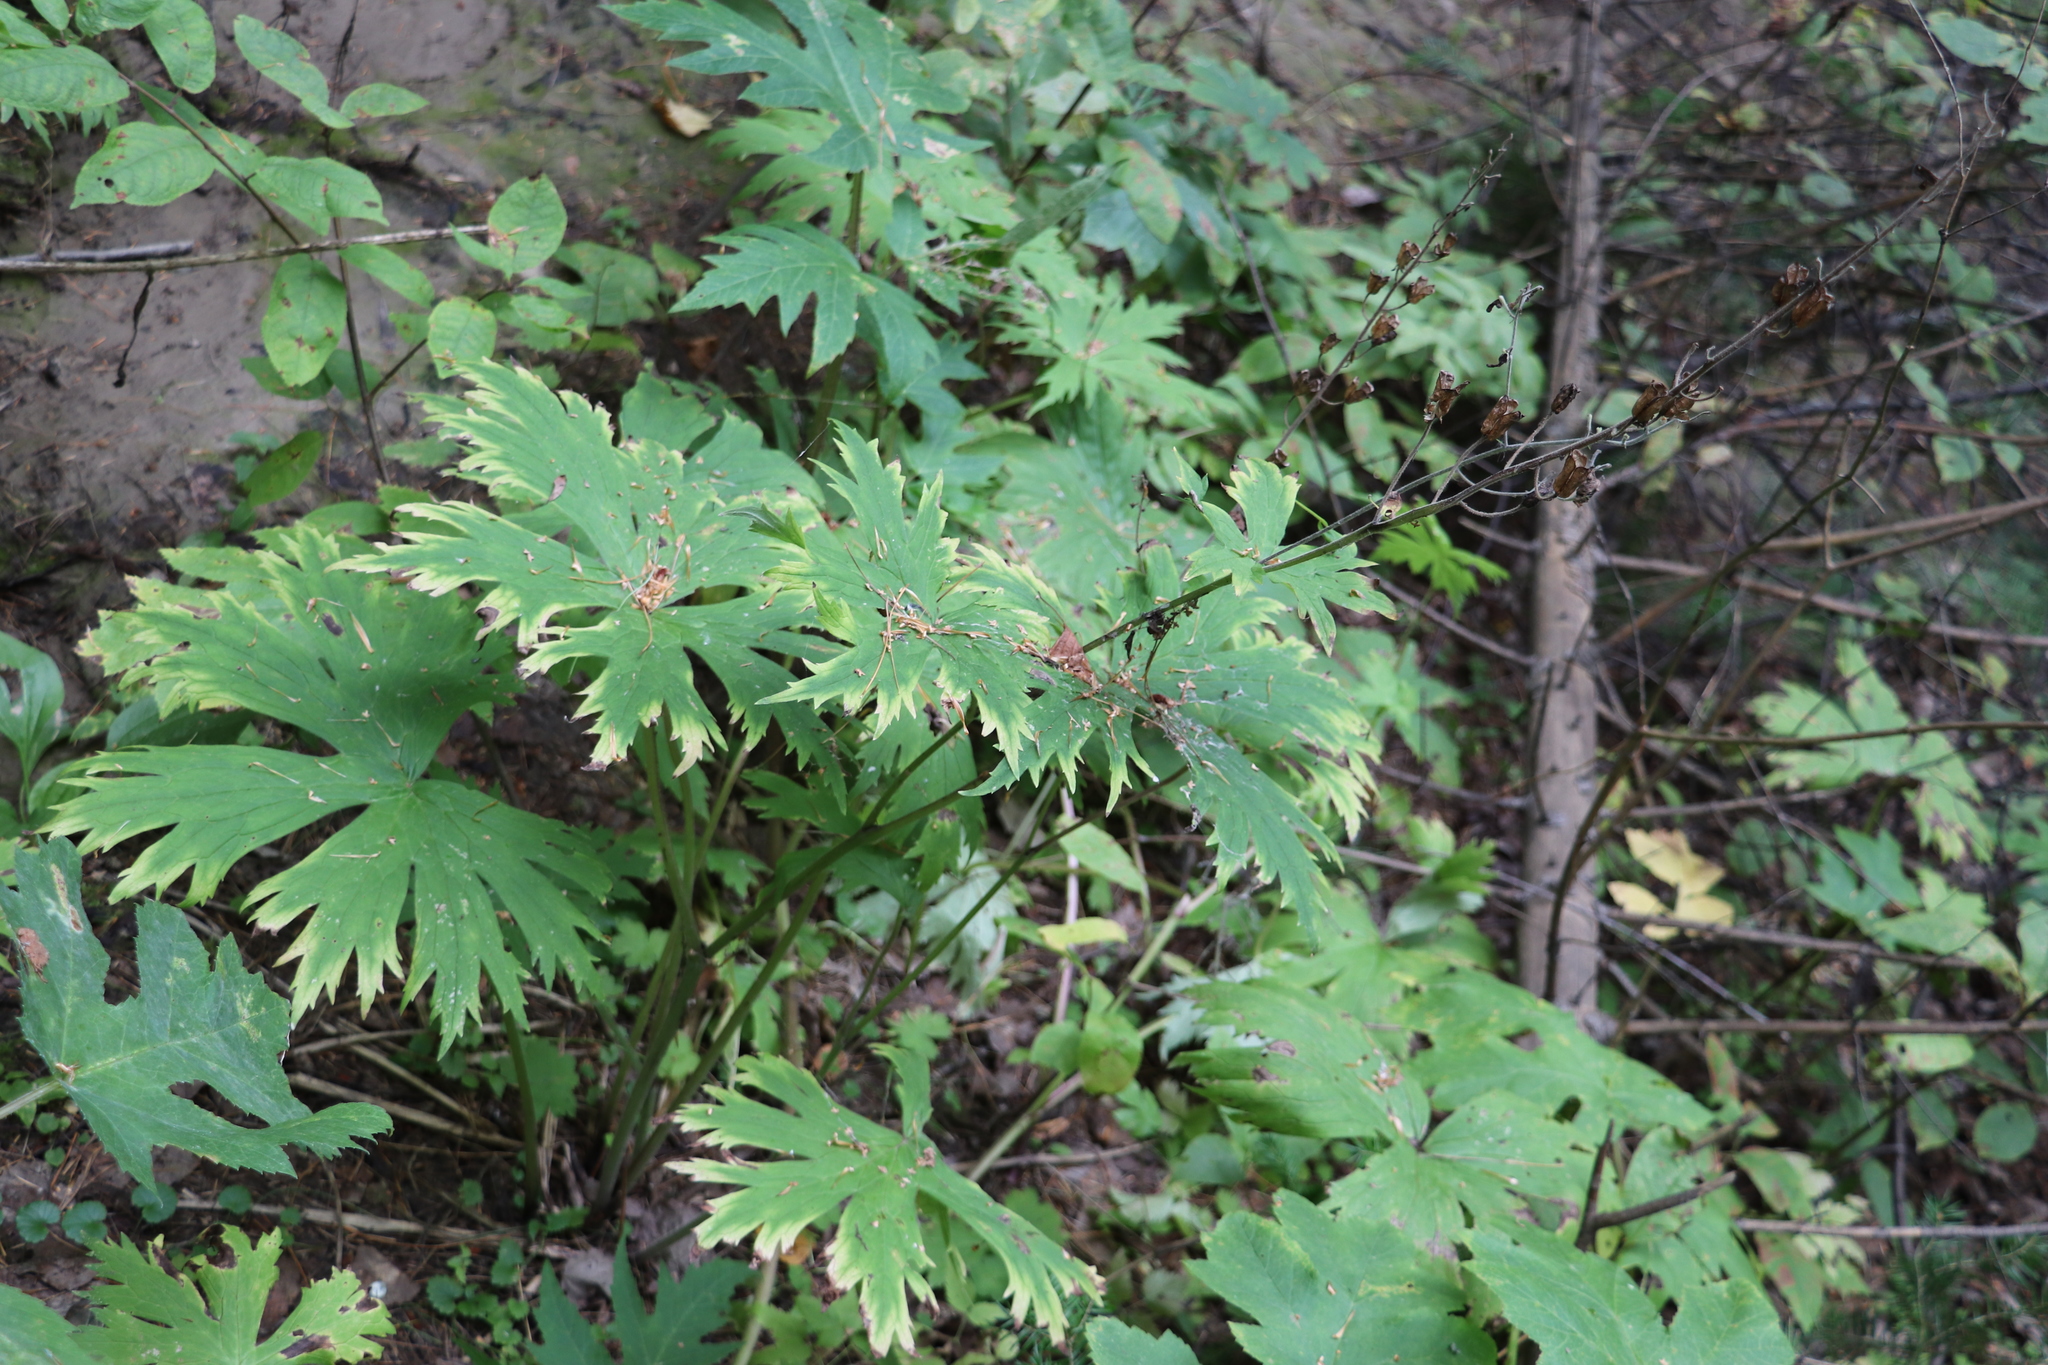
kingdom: Plantae
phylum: Tracheophyta
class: Magnoliopsida
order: Ranunculales
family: Ranunculaceae
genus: Aconitum
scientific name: Aconitum septentrionale
